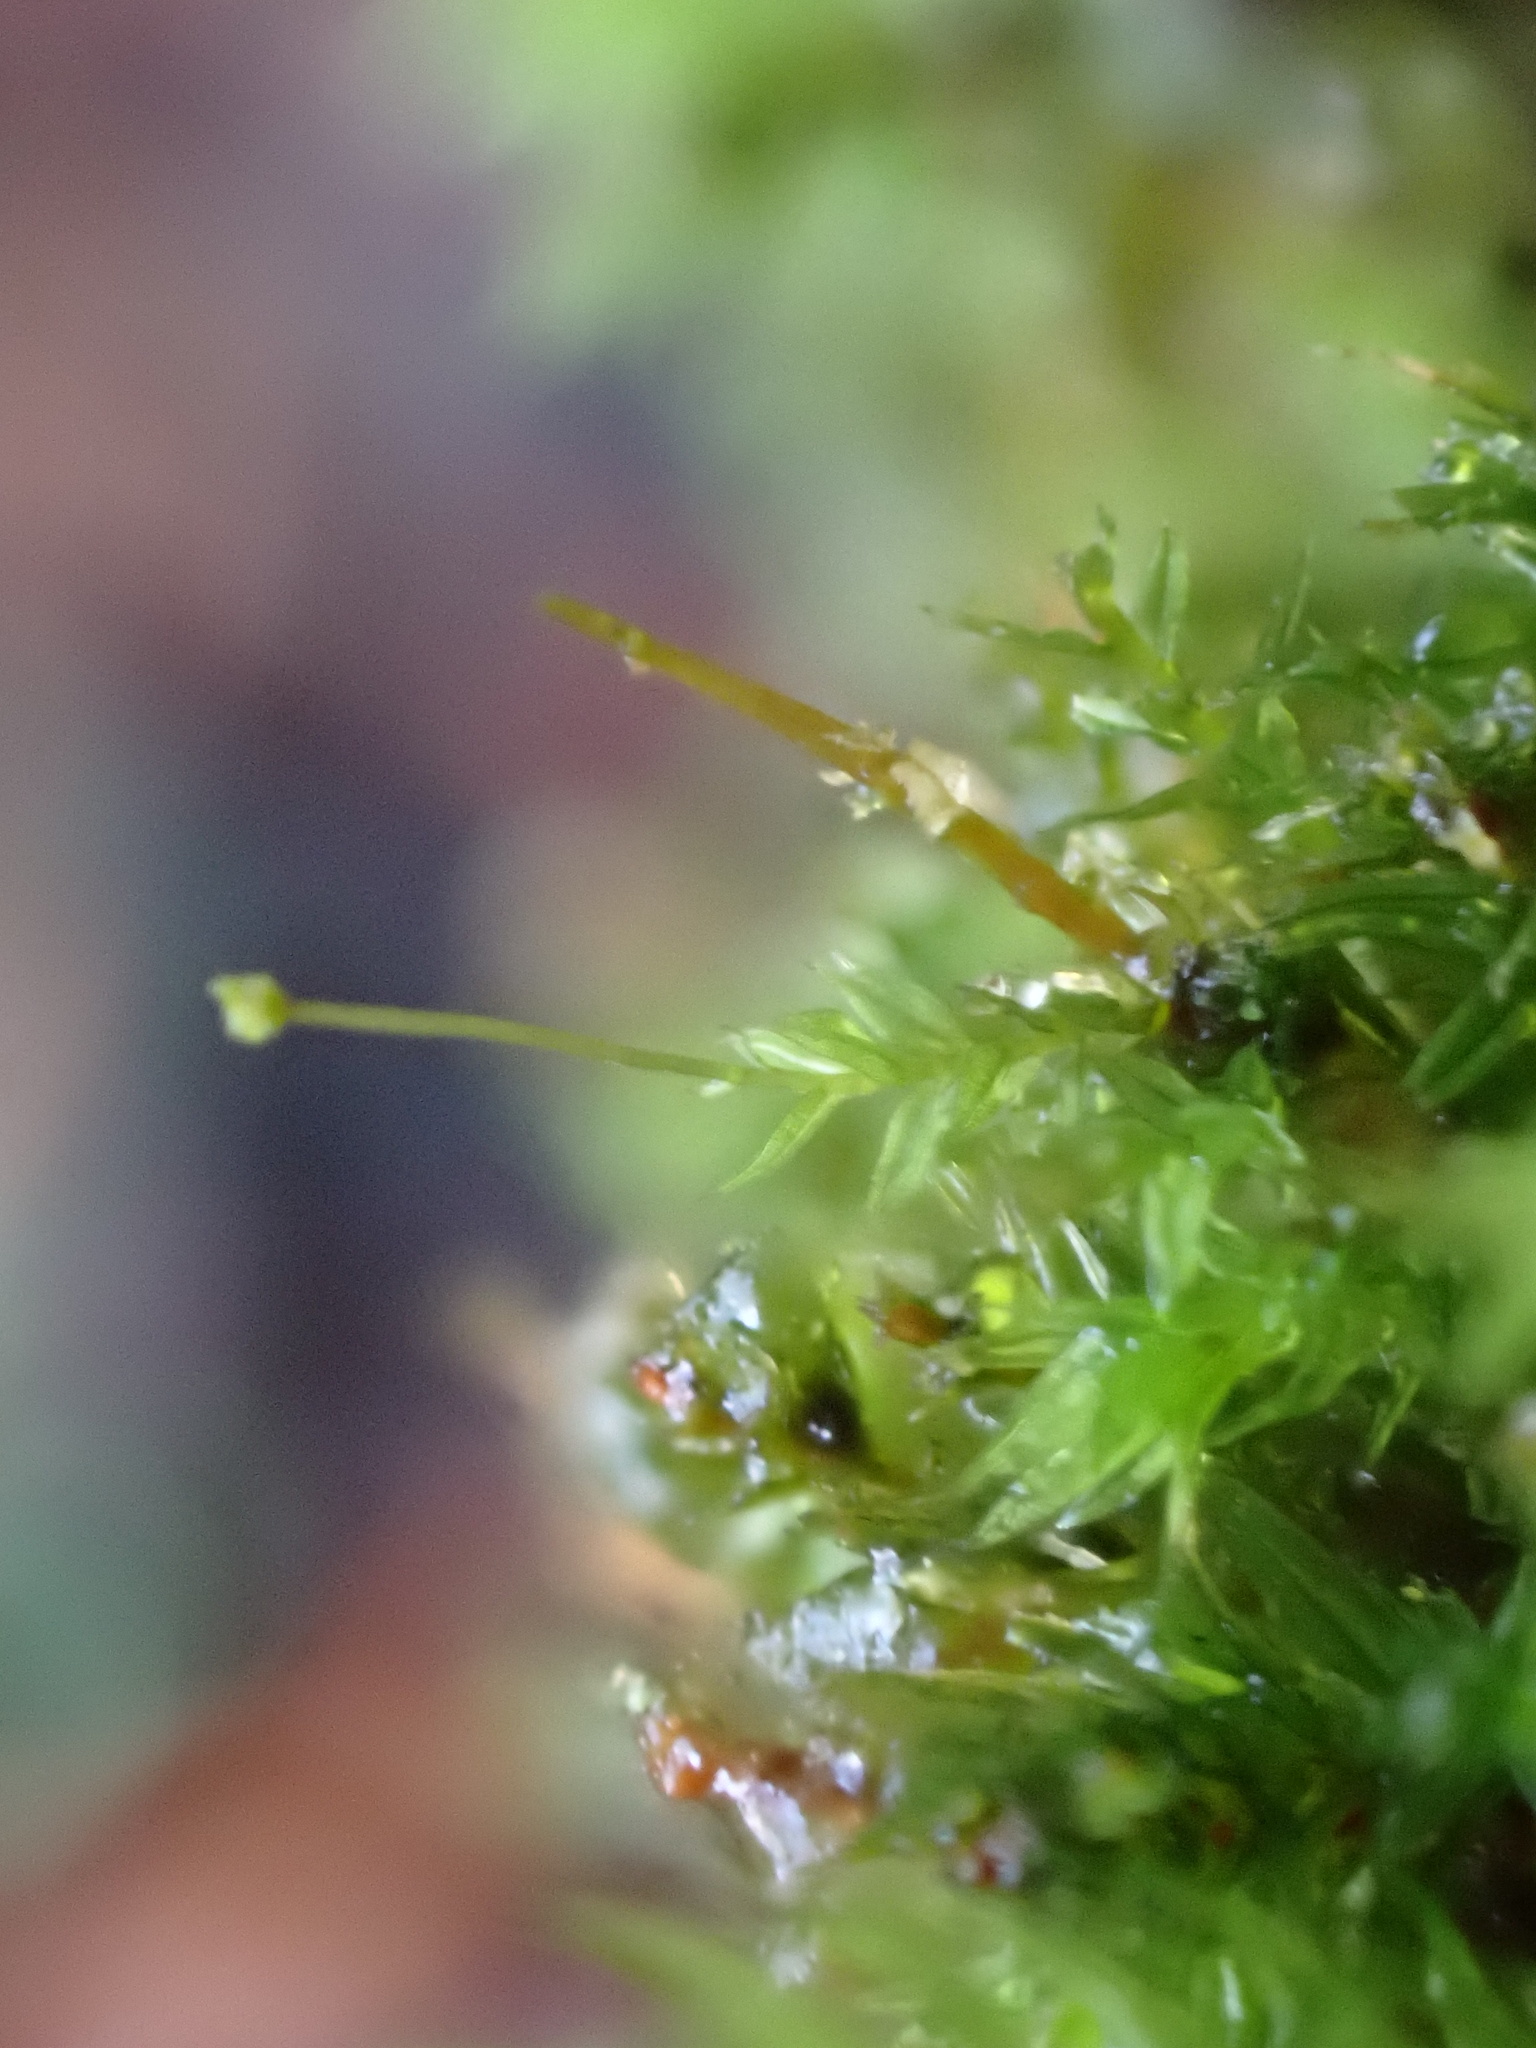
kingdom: Plantae
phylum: Bryophyta
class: Bryopsida
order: Aulacomniales
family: Aulacomniaceae
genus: Aulacomnium
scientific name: Aulacomnium androgynum
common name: Little groove moss
